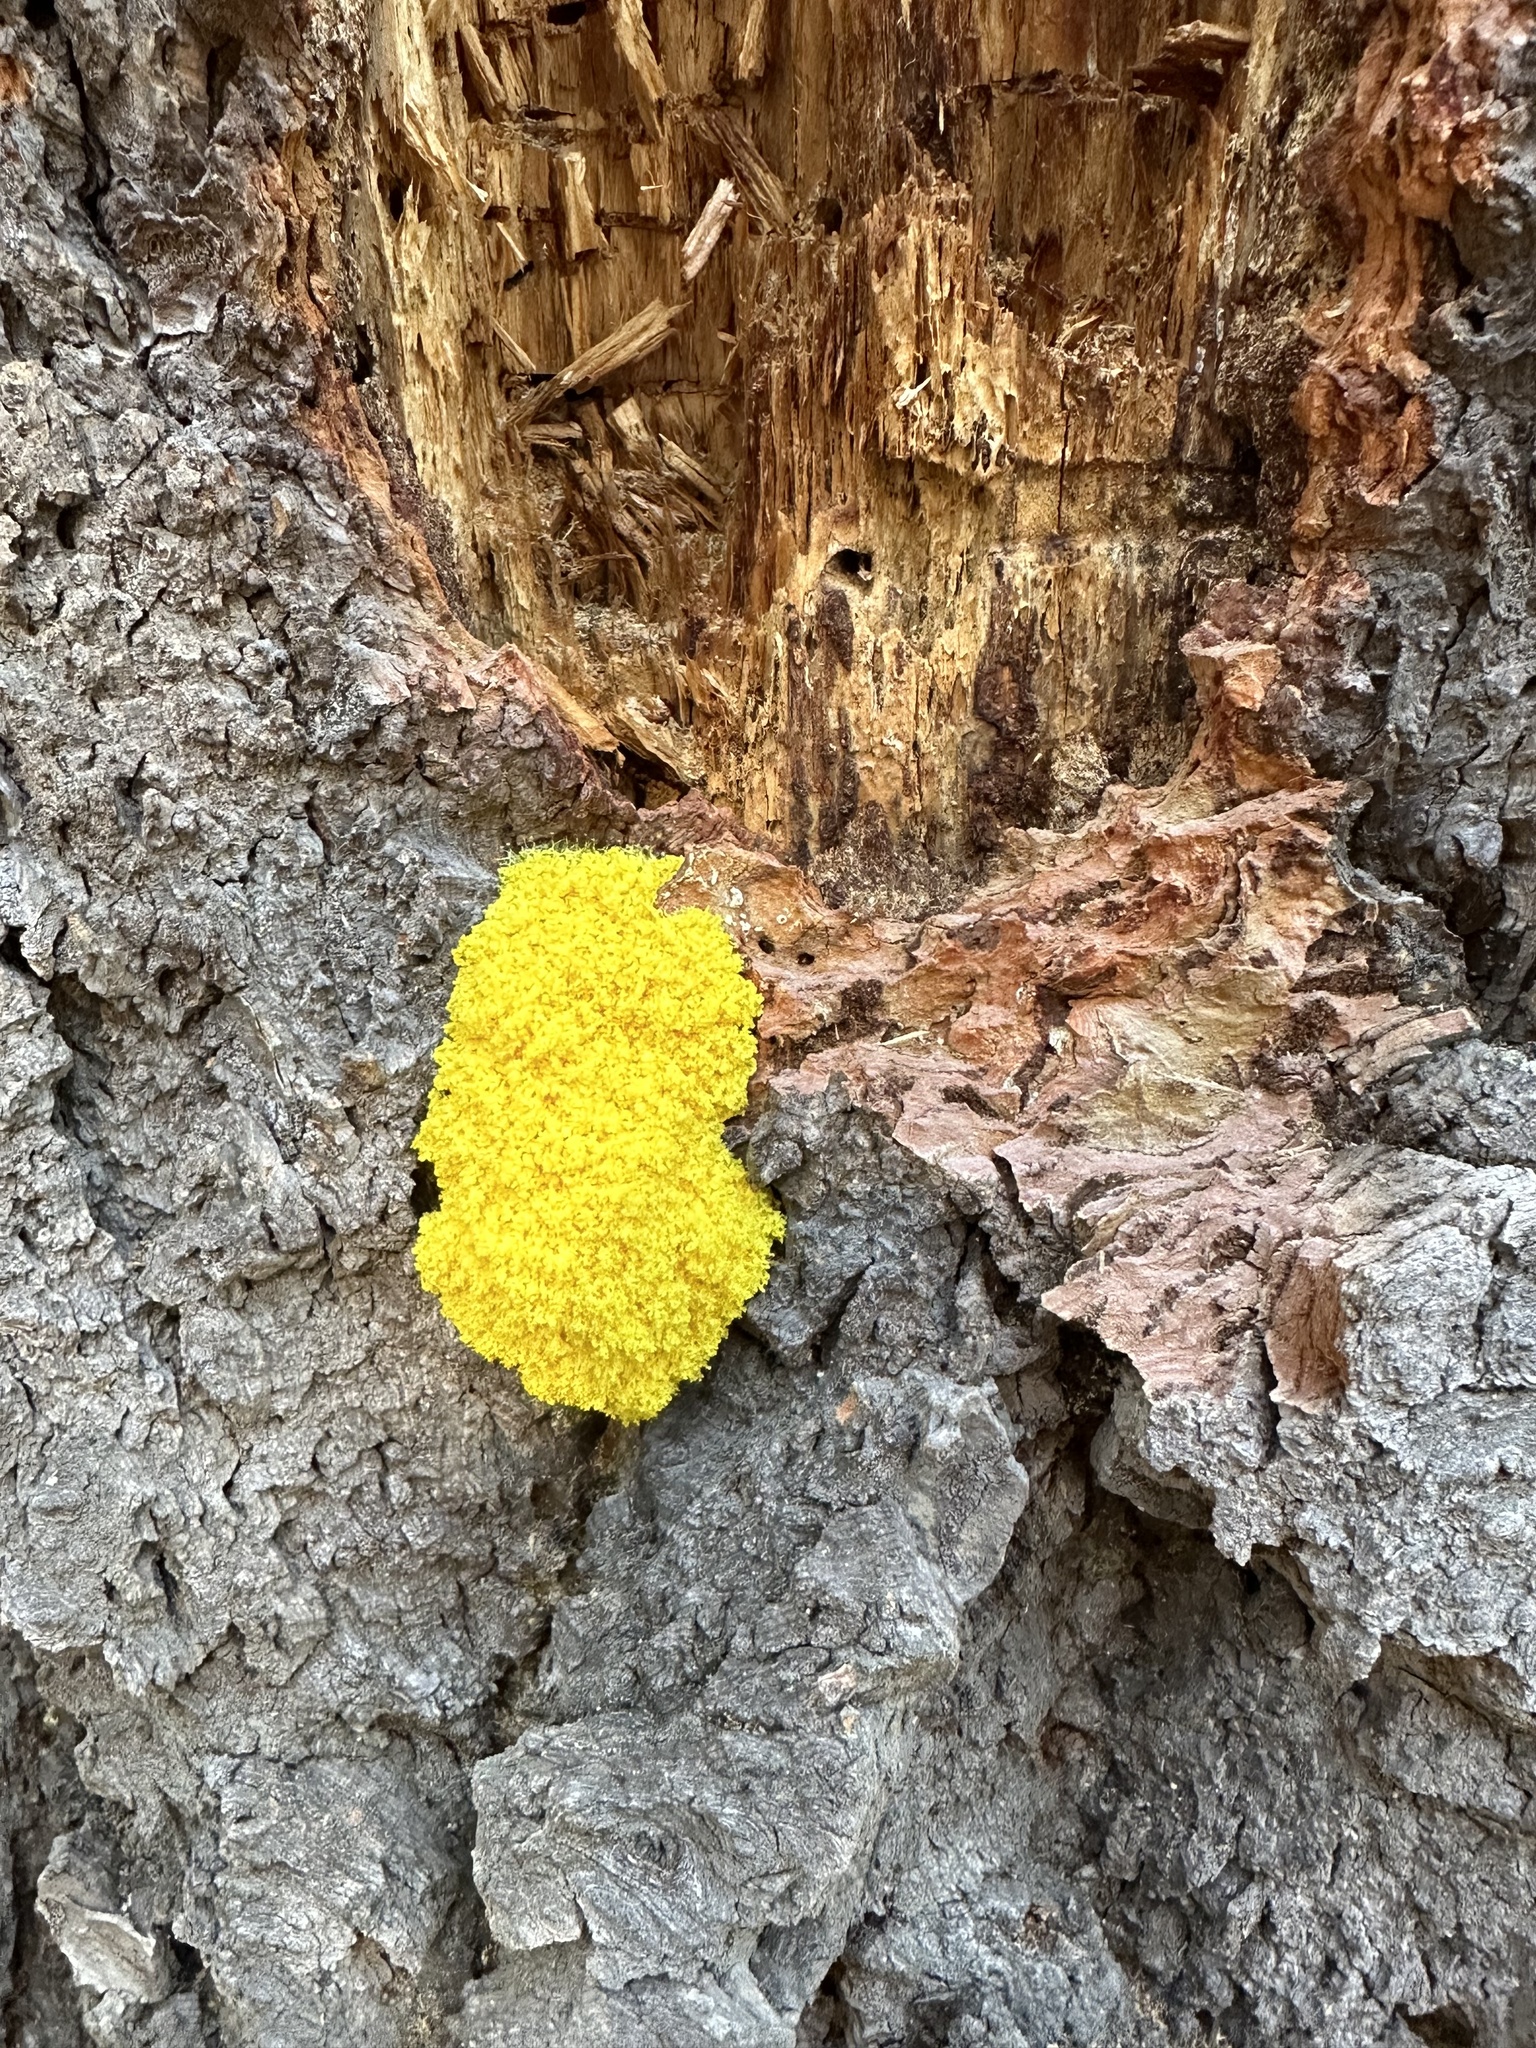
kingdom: Protozoa
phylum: Mycetozoa
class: Myxomycetes
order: Physarales
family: Physaraceae
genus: Fuligo
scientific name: Fuligo septica
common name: Dog vomit slime mold
